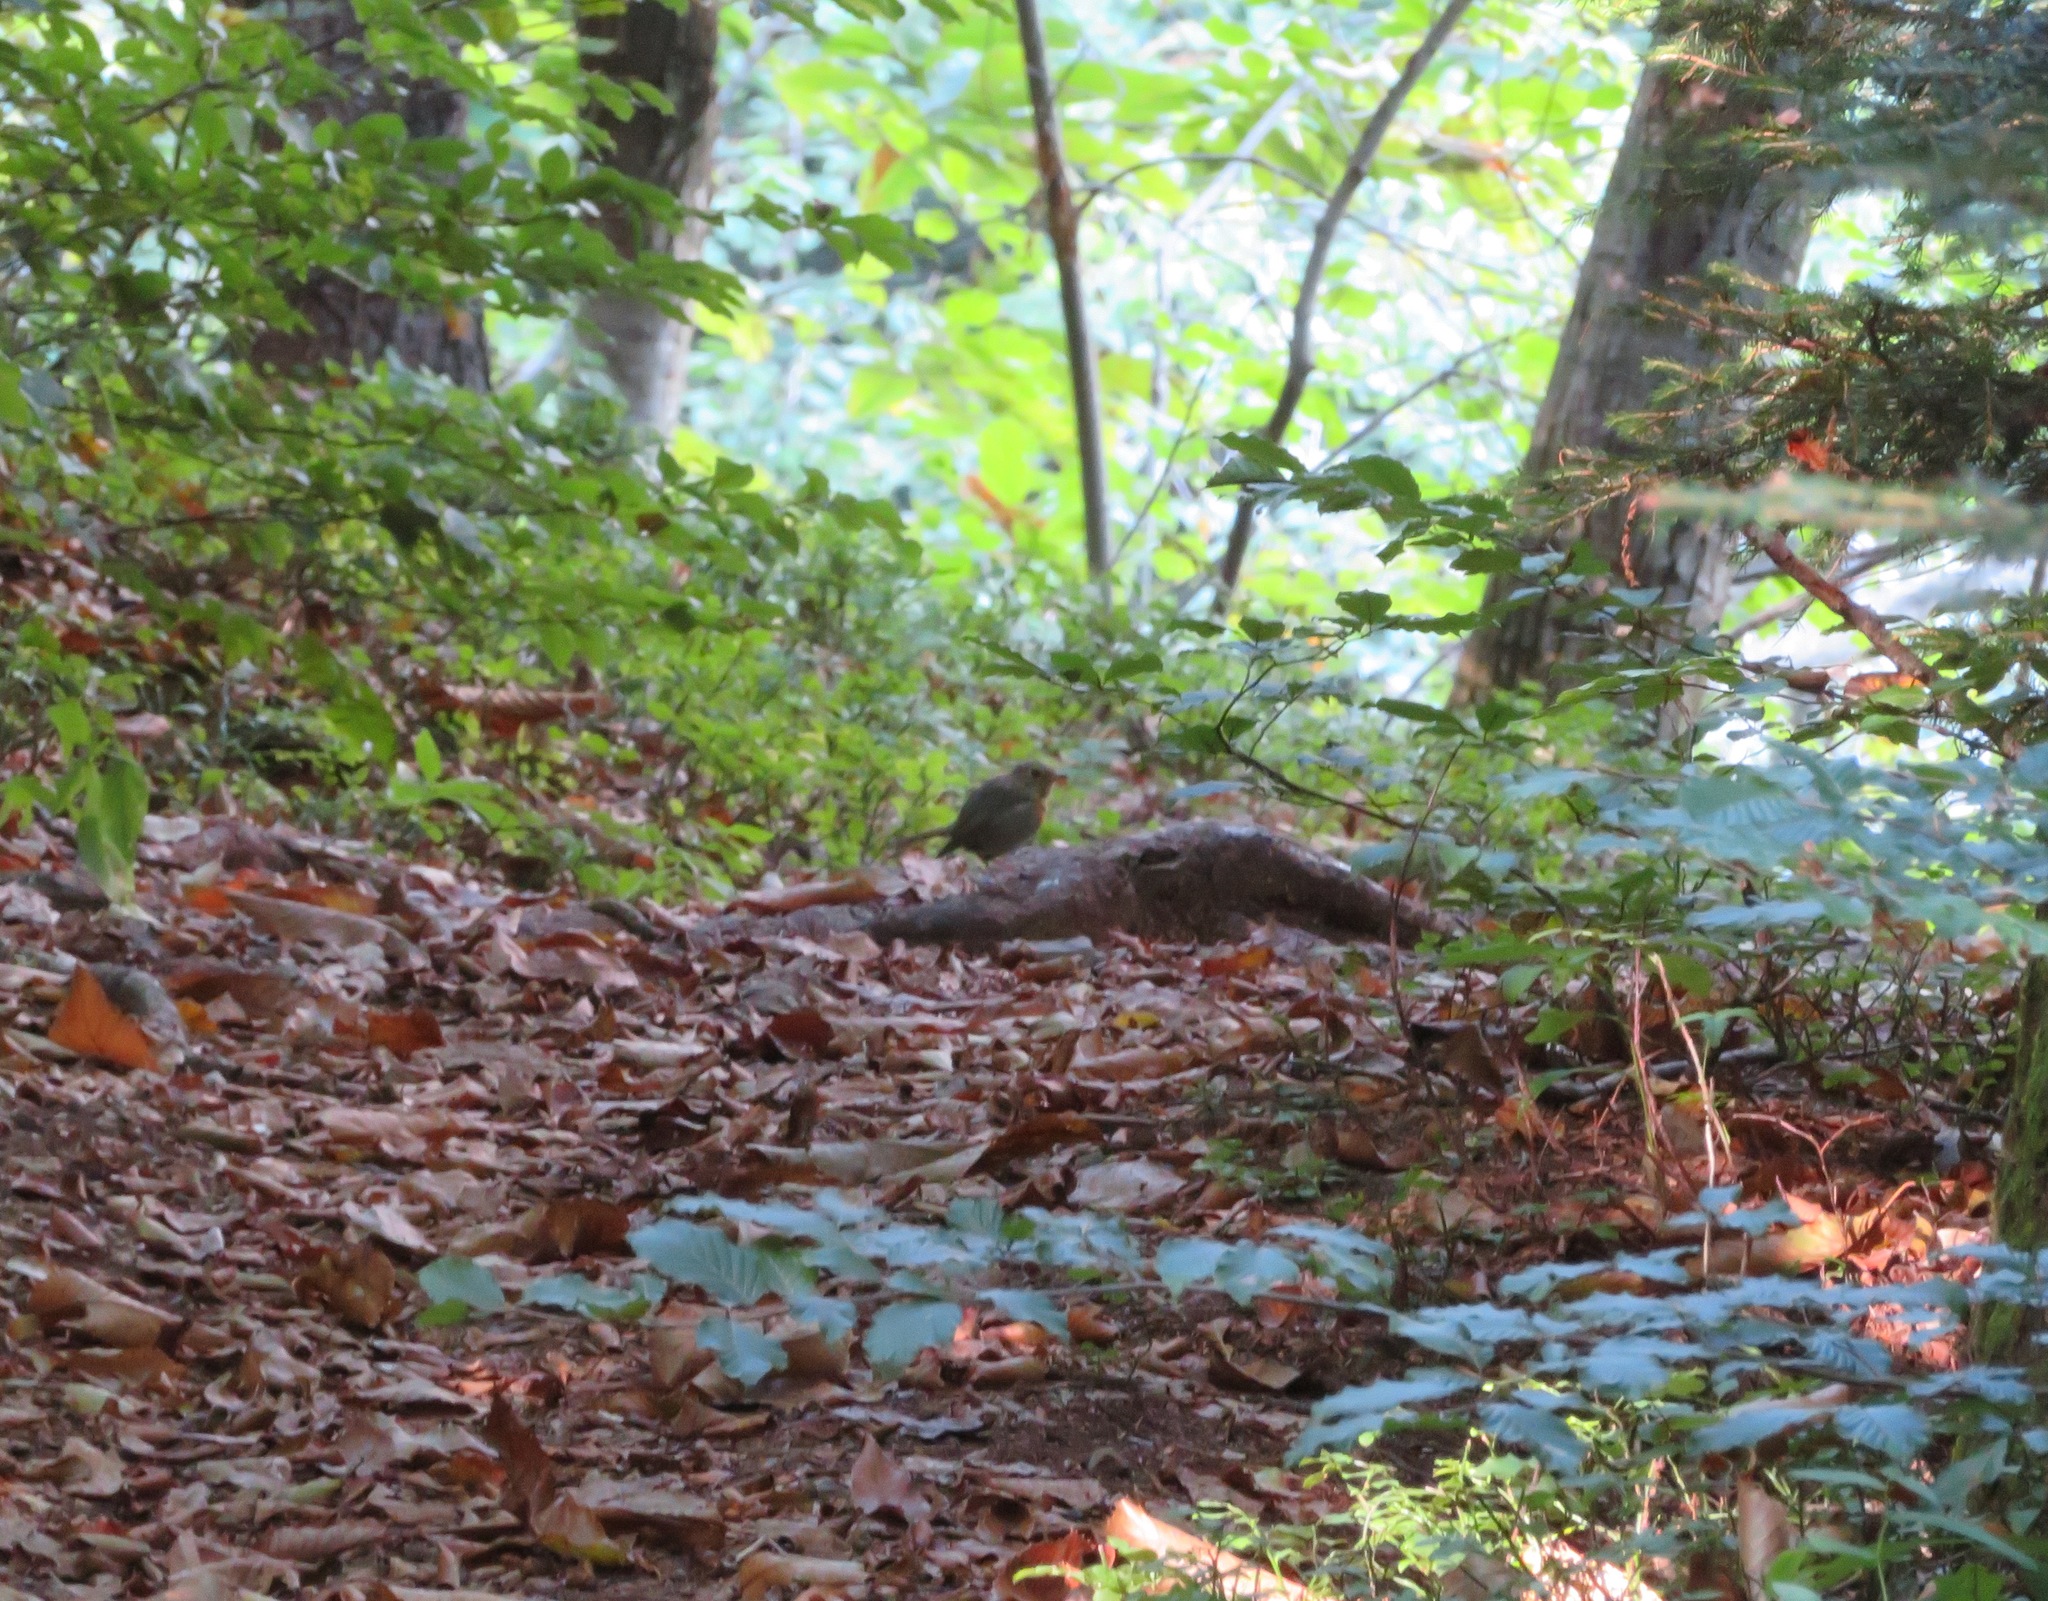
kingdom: Animalia
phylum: Chordata
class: Aves
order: Passeriformes
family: Muscicapidae
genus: Erithacus
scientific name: Erithacus rubecula
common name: European robin
